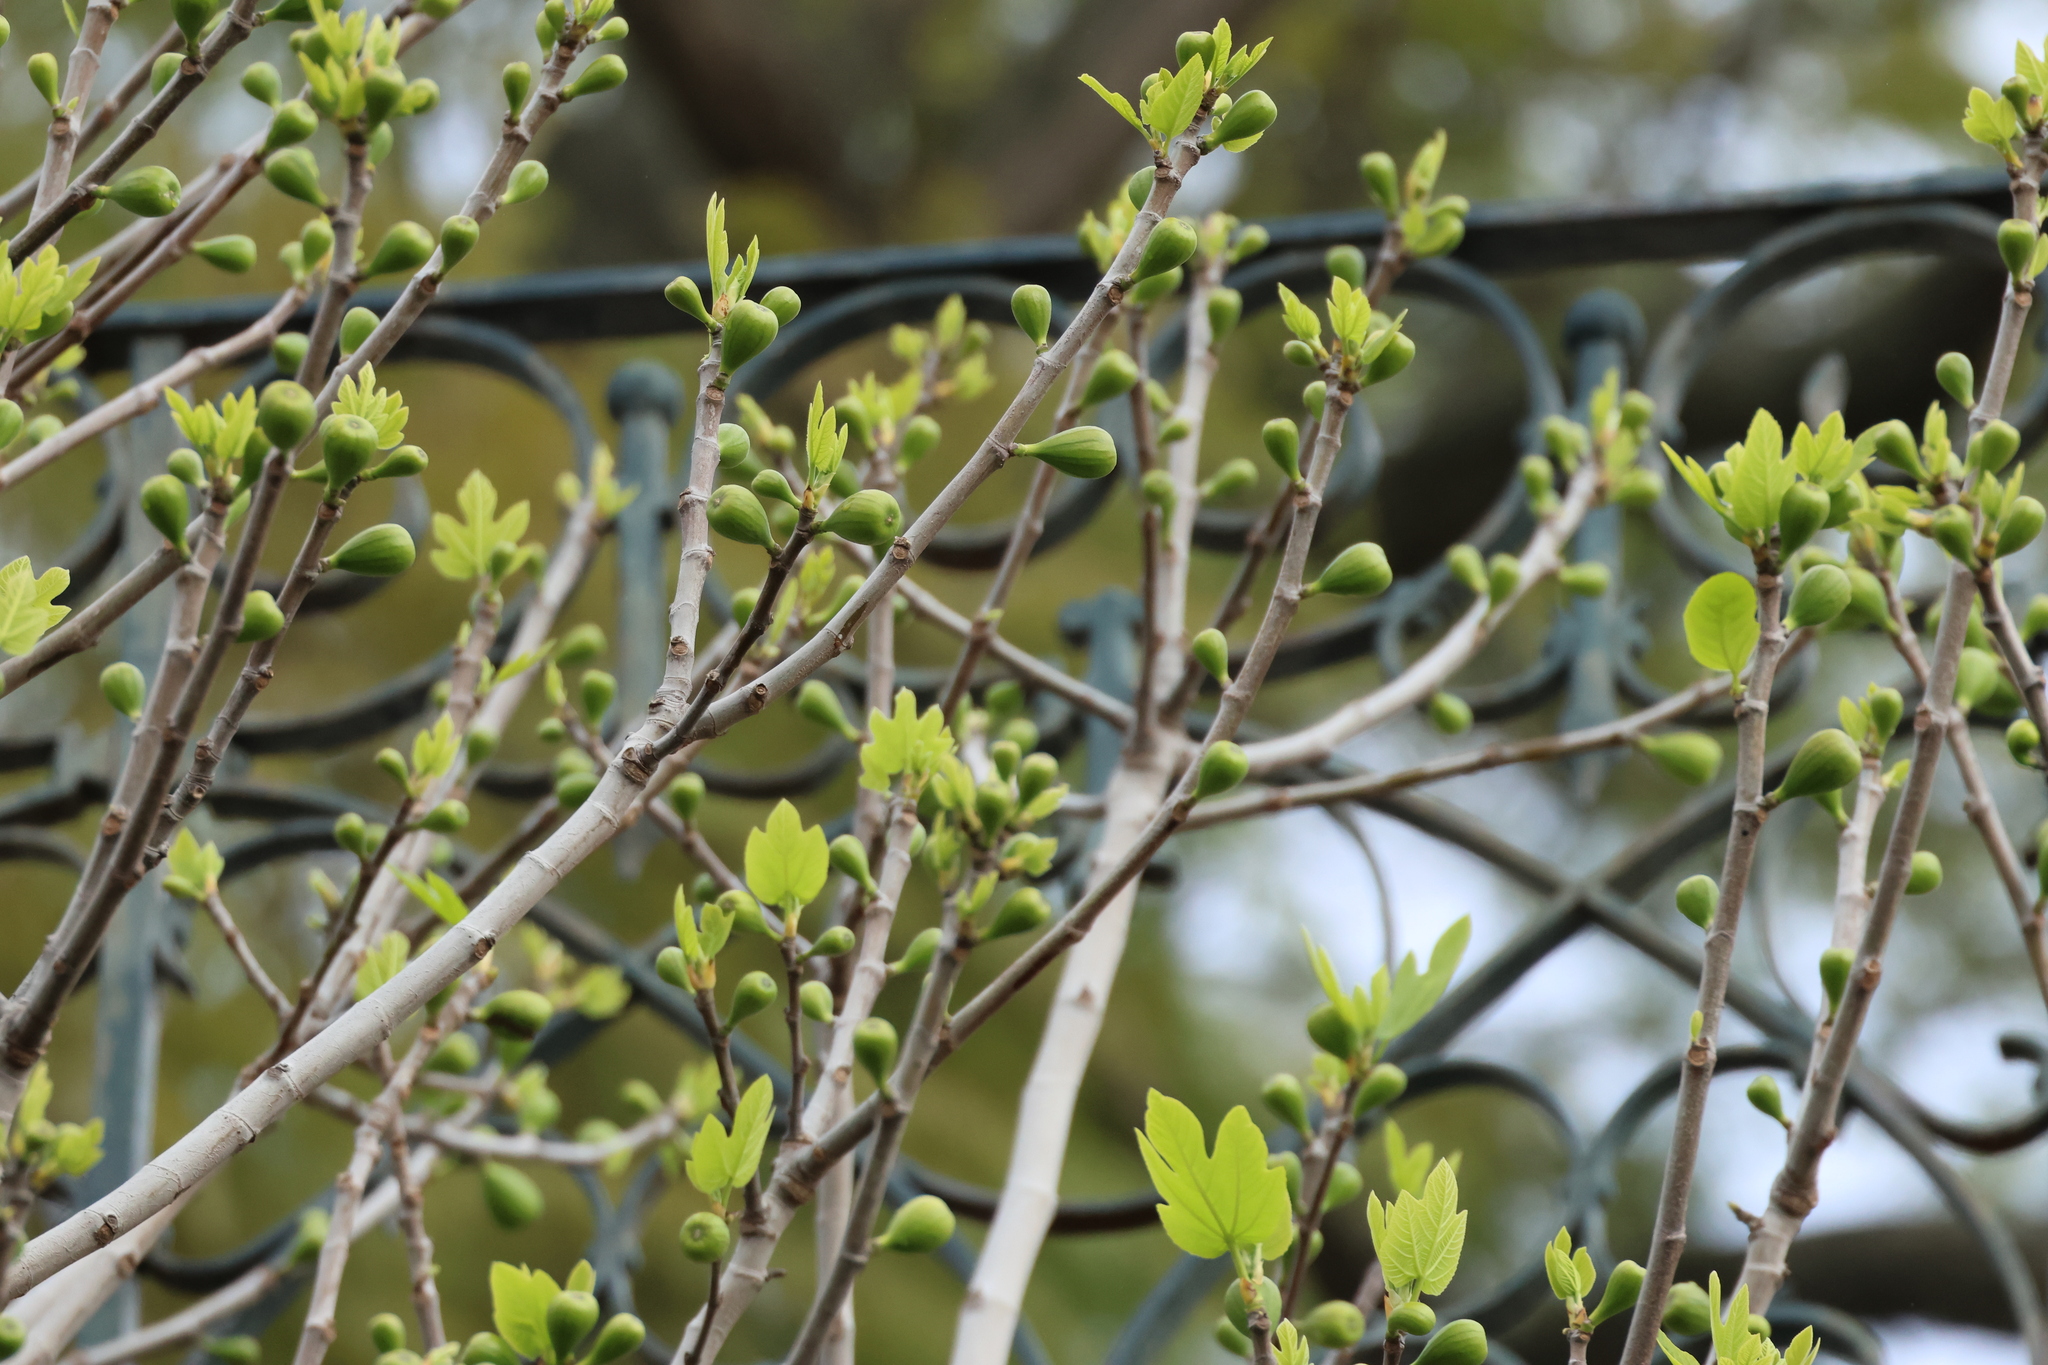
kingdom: Plantae
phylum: Tracheophyta
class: Magnoliopsida
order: Rosales
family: Moraceae
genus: Ficus
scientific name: Ficus carica
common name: Fig
